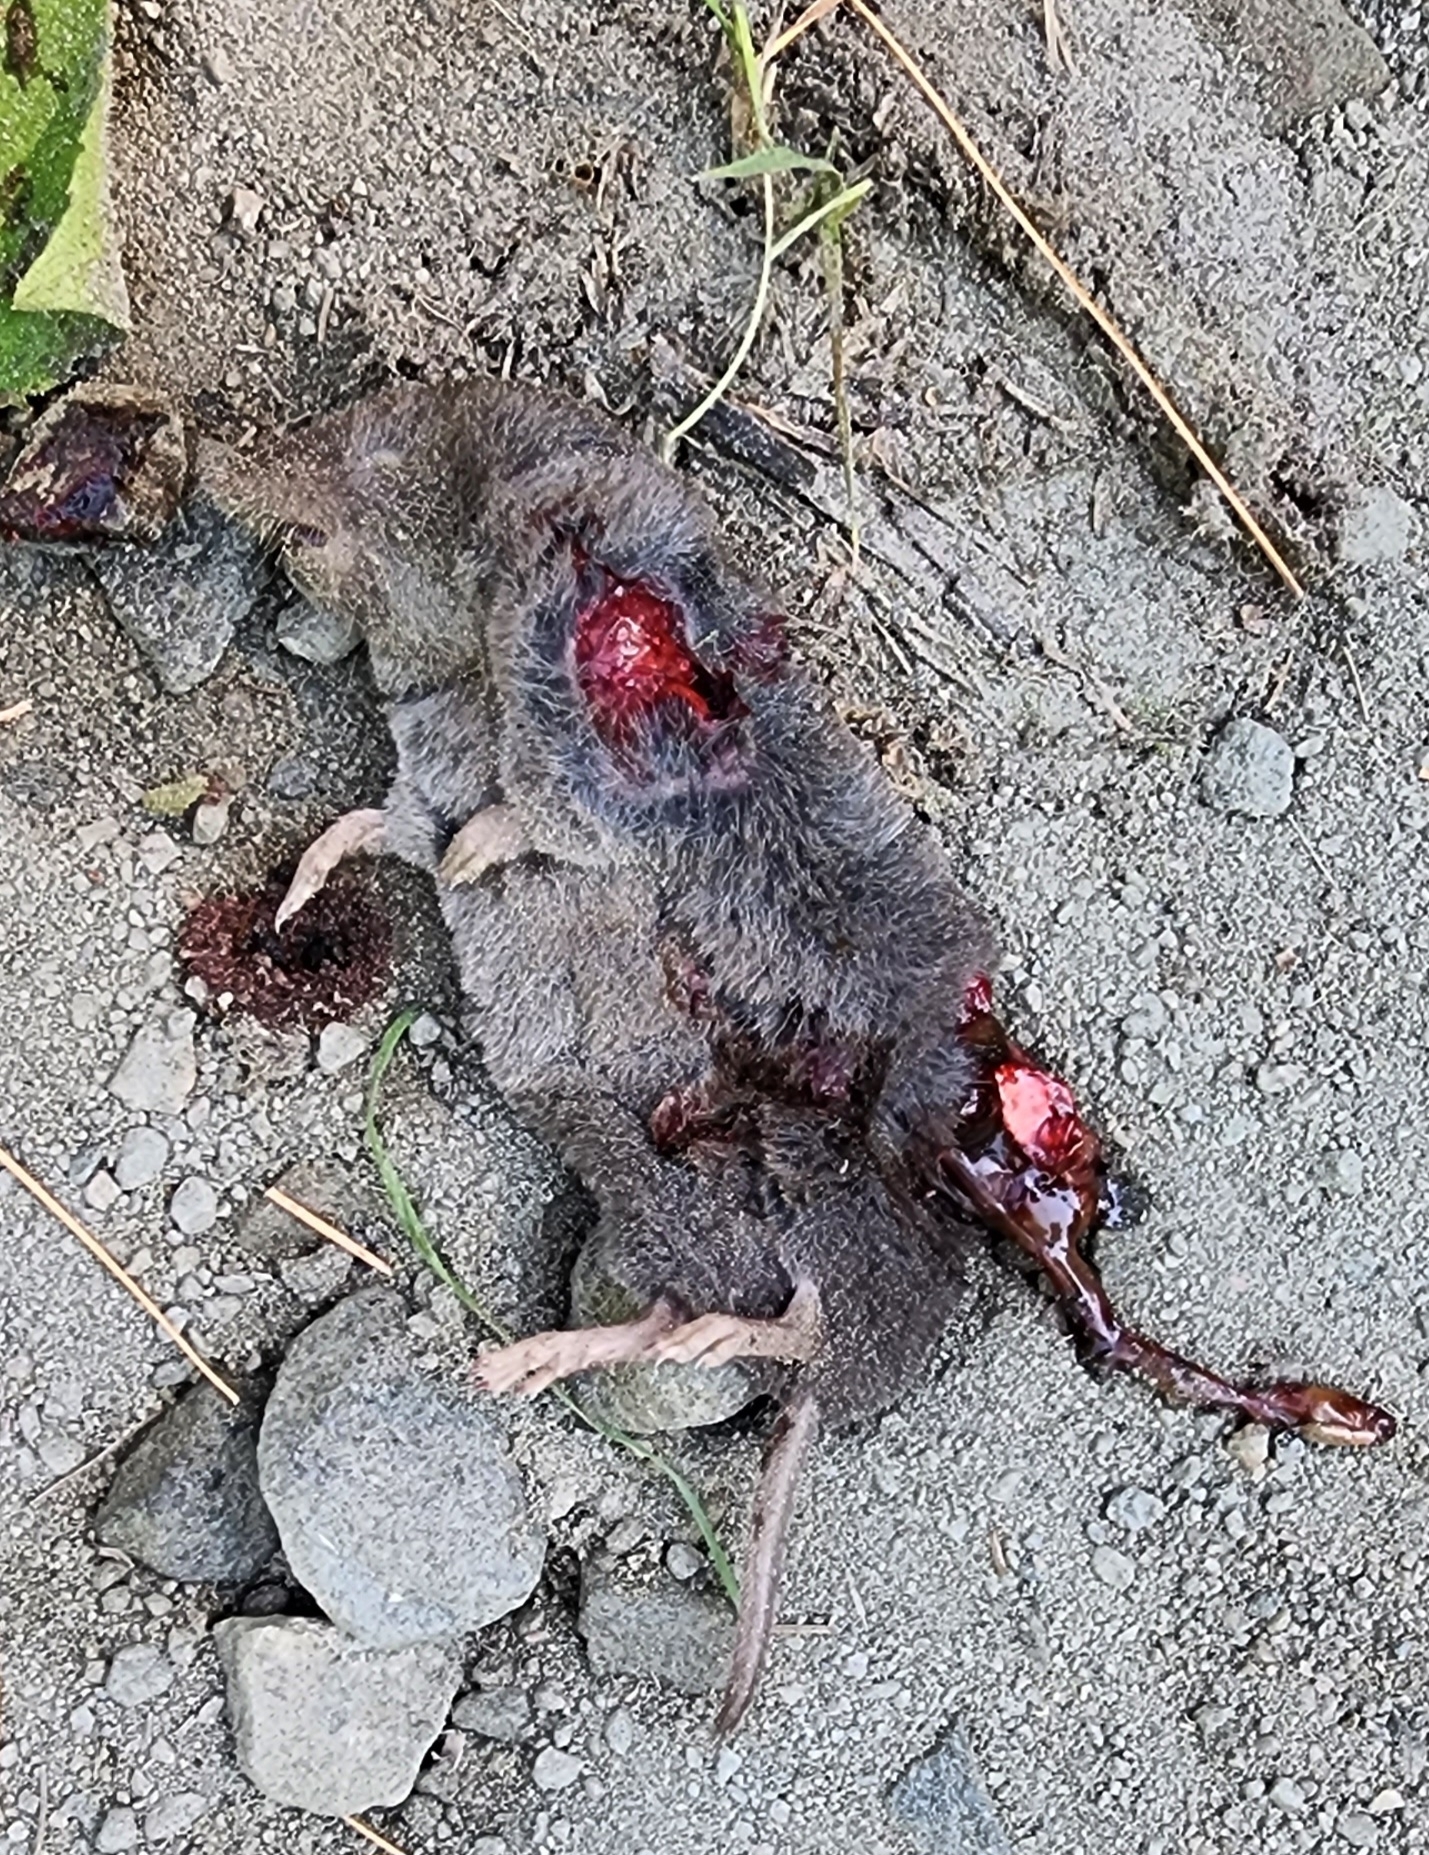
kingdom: Animalia
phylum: Chordata
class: Mammalia
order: Soricomorpha
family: Soricidae
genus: Blarina
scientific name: Blarina brevicauda
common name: Northern short-tailed shrew
